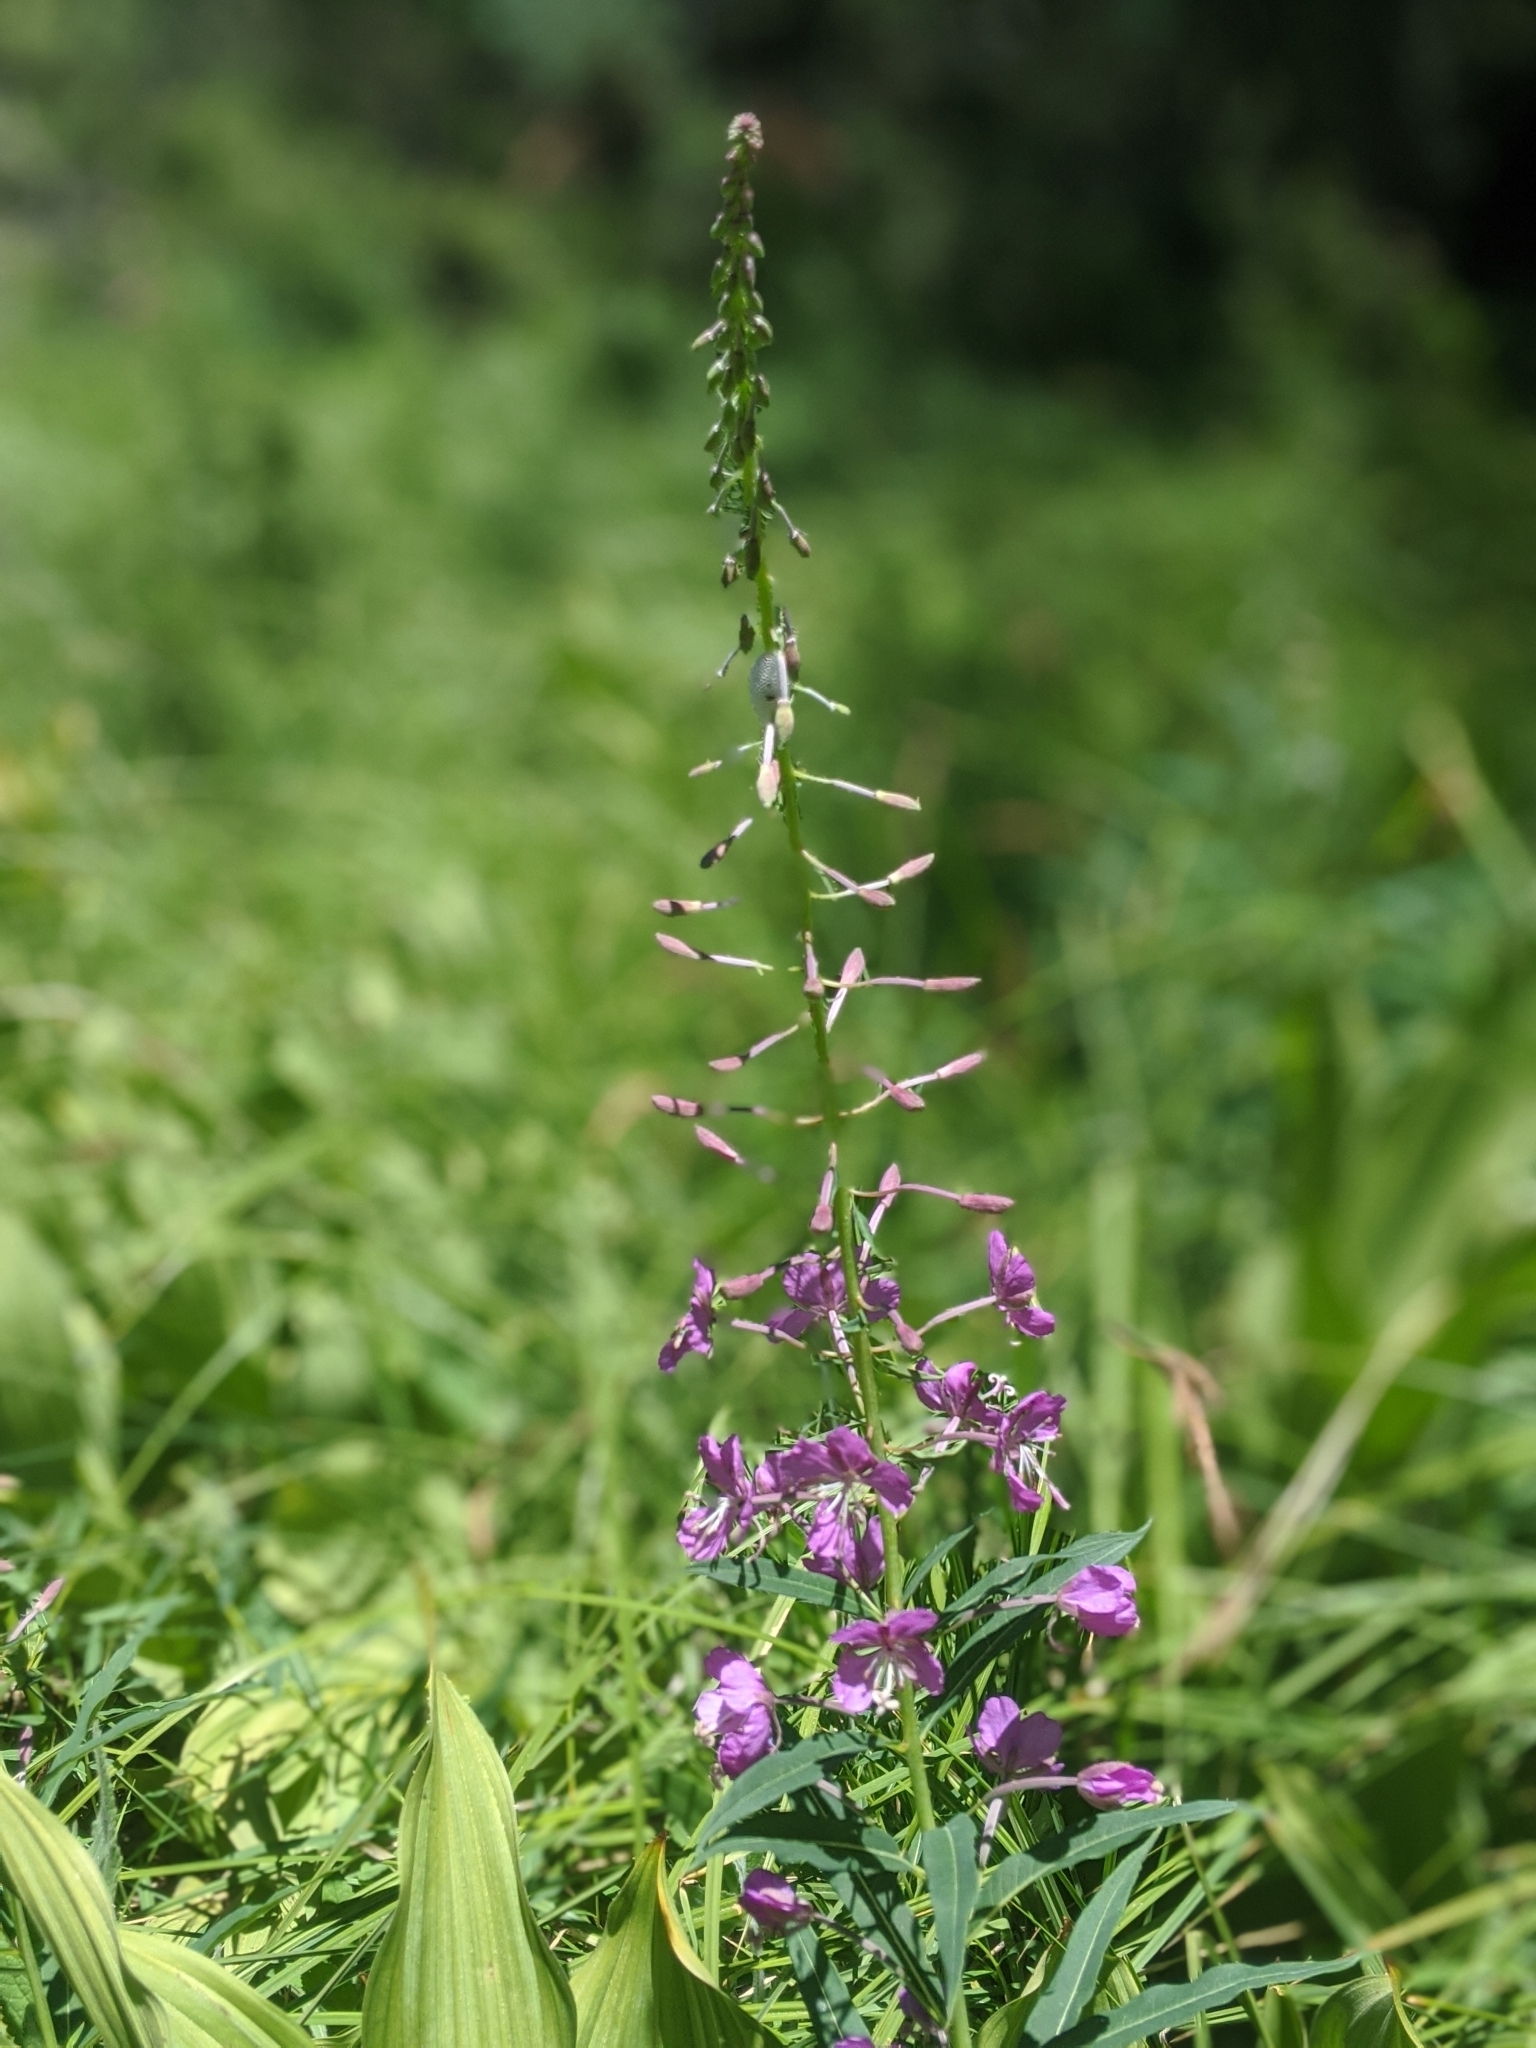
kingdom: Plantae
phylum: Tracheophyta
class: Magnoliopsida
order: Myrtales
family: Onagraceae
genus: Chamaenerion
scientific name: Chamaenerion angustifolium
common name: Fireweed
